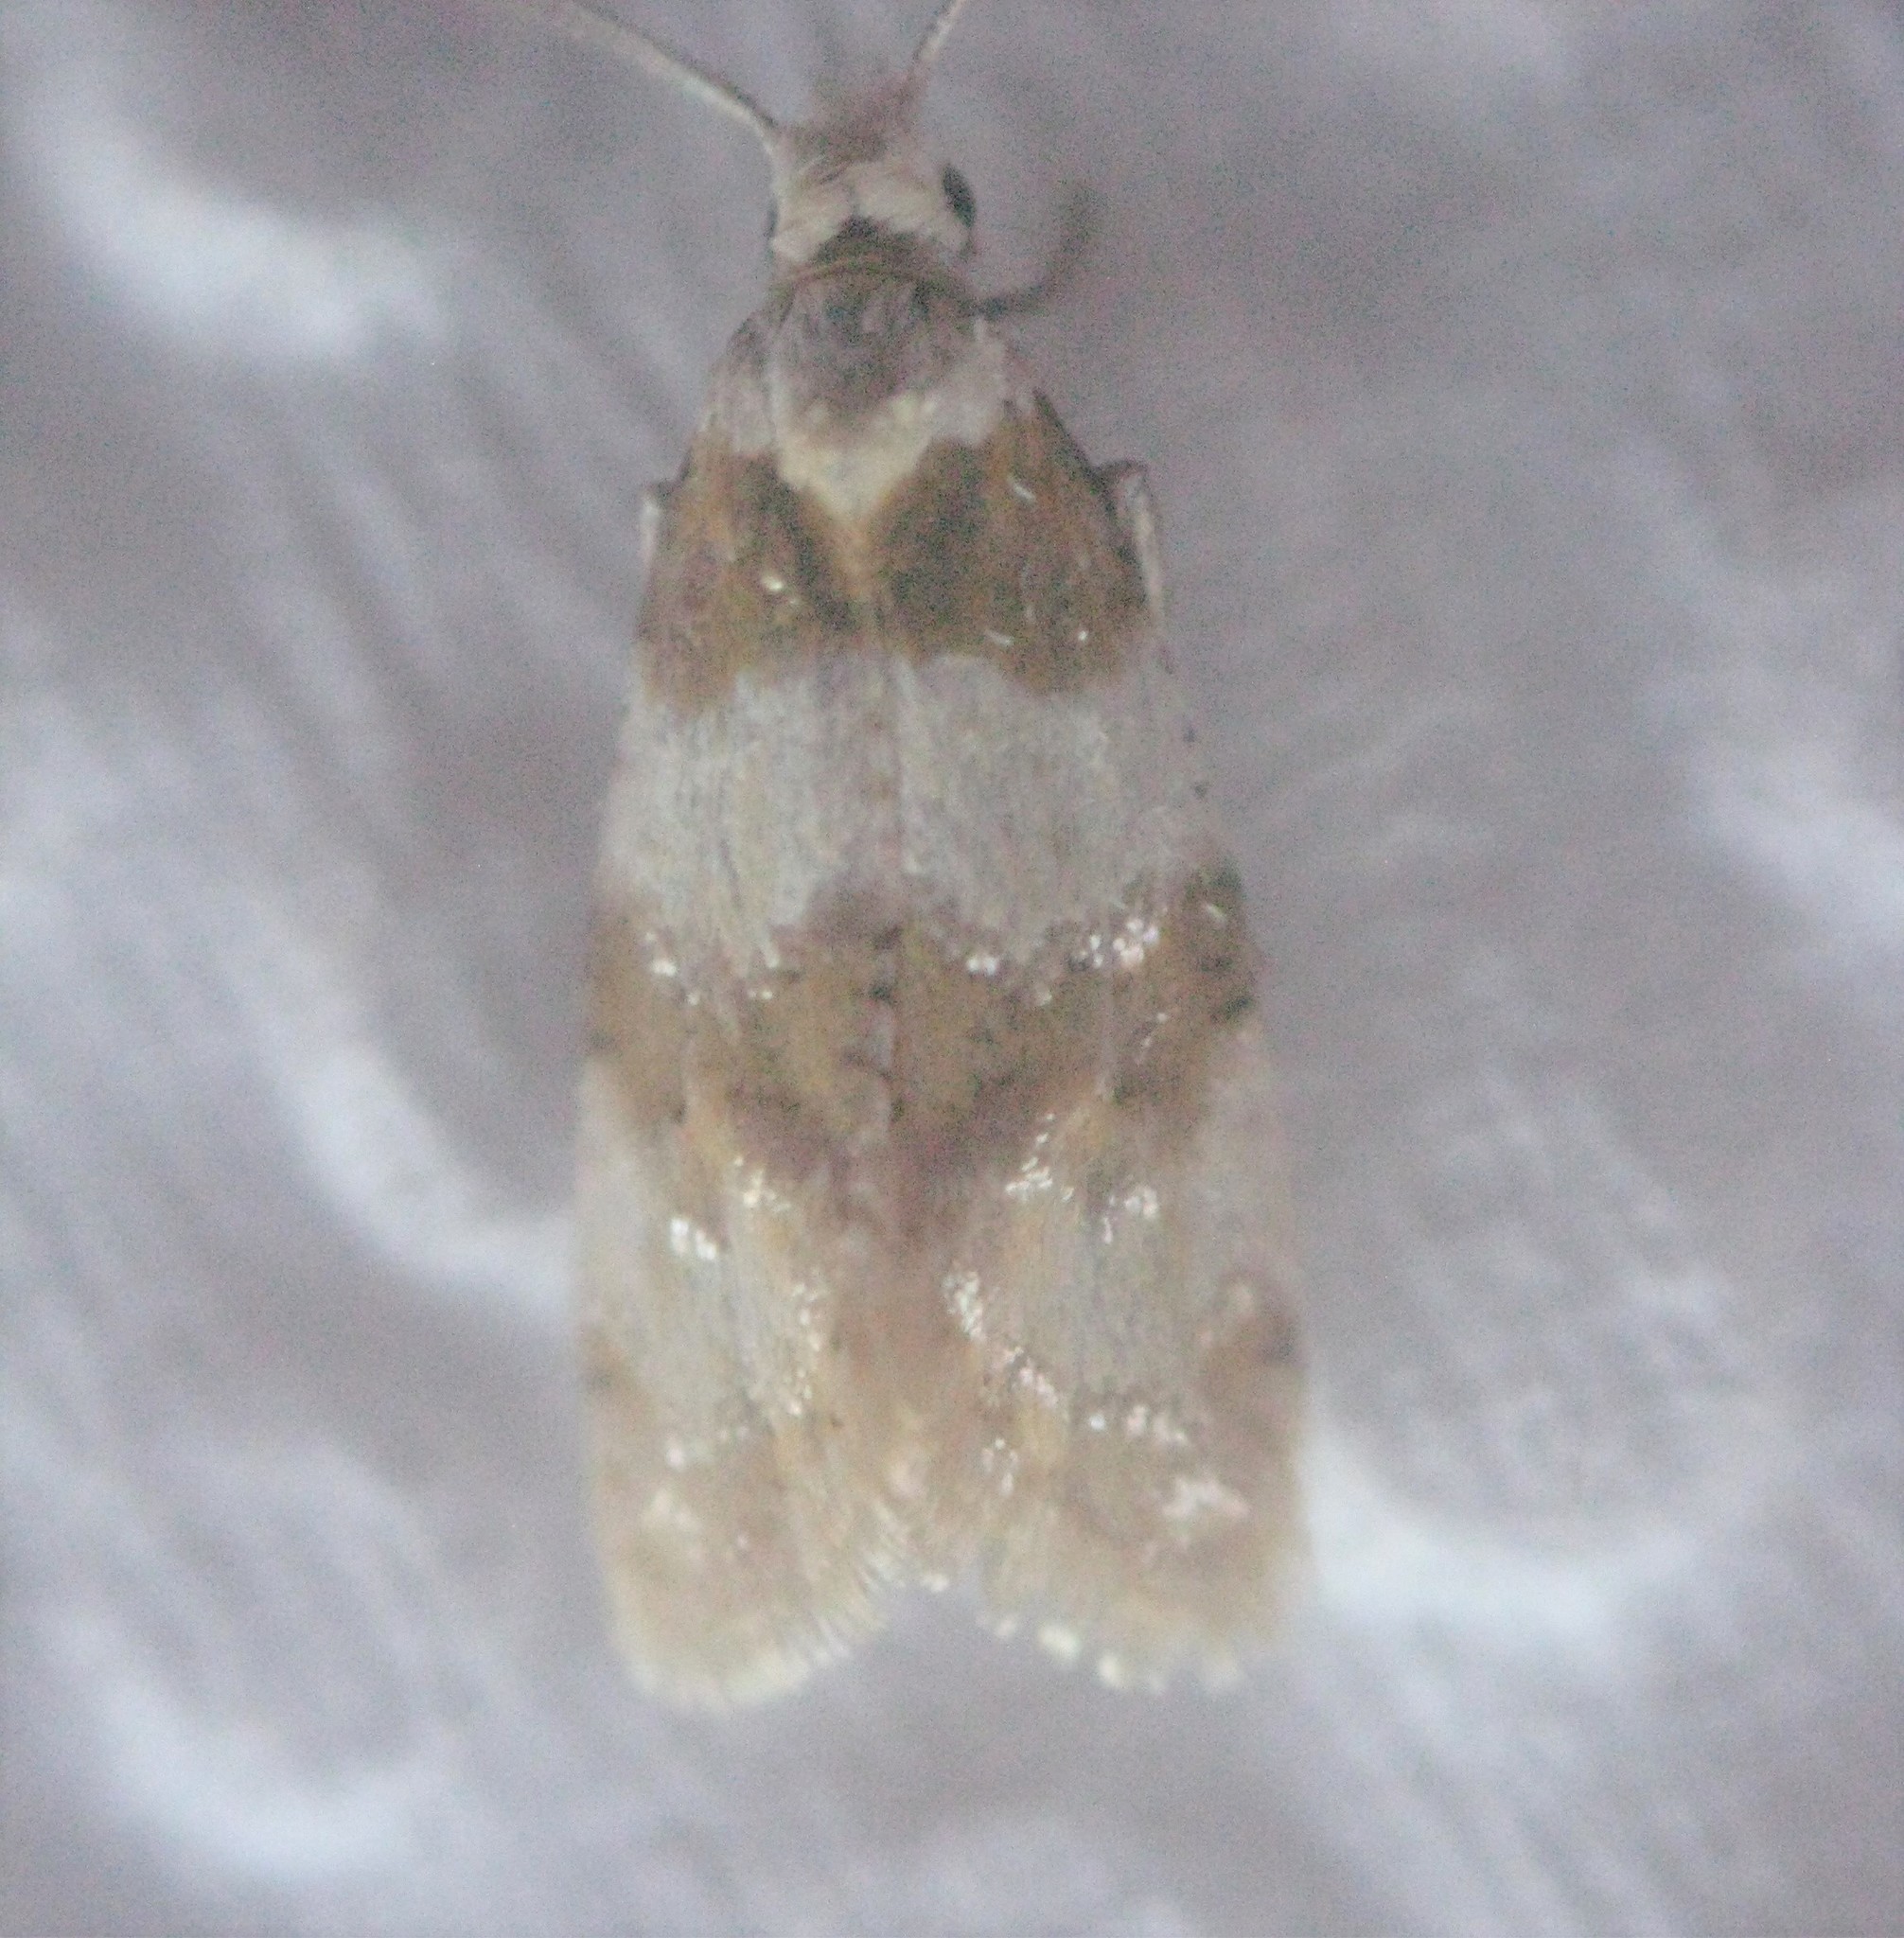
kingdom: Animalia
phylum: Arthropoda
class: Insecta
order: Lepidoptera
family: Tortricidae
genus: Aethes
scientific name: Aethes argentilimitana
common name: Silver-bordered aethes
